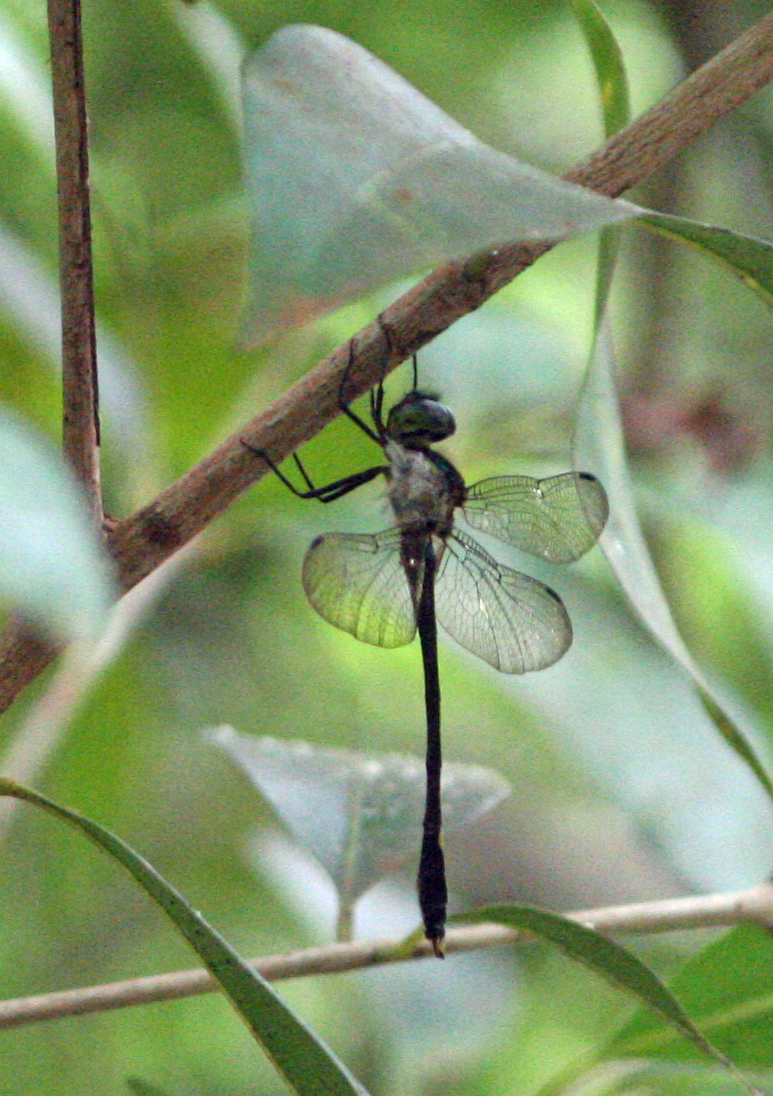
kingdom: Animalia
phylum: Arthropoda
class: Insecta
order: Odonata
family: Corduliidae
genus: Macromidia
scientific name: Macromidia rapida
